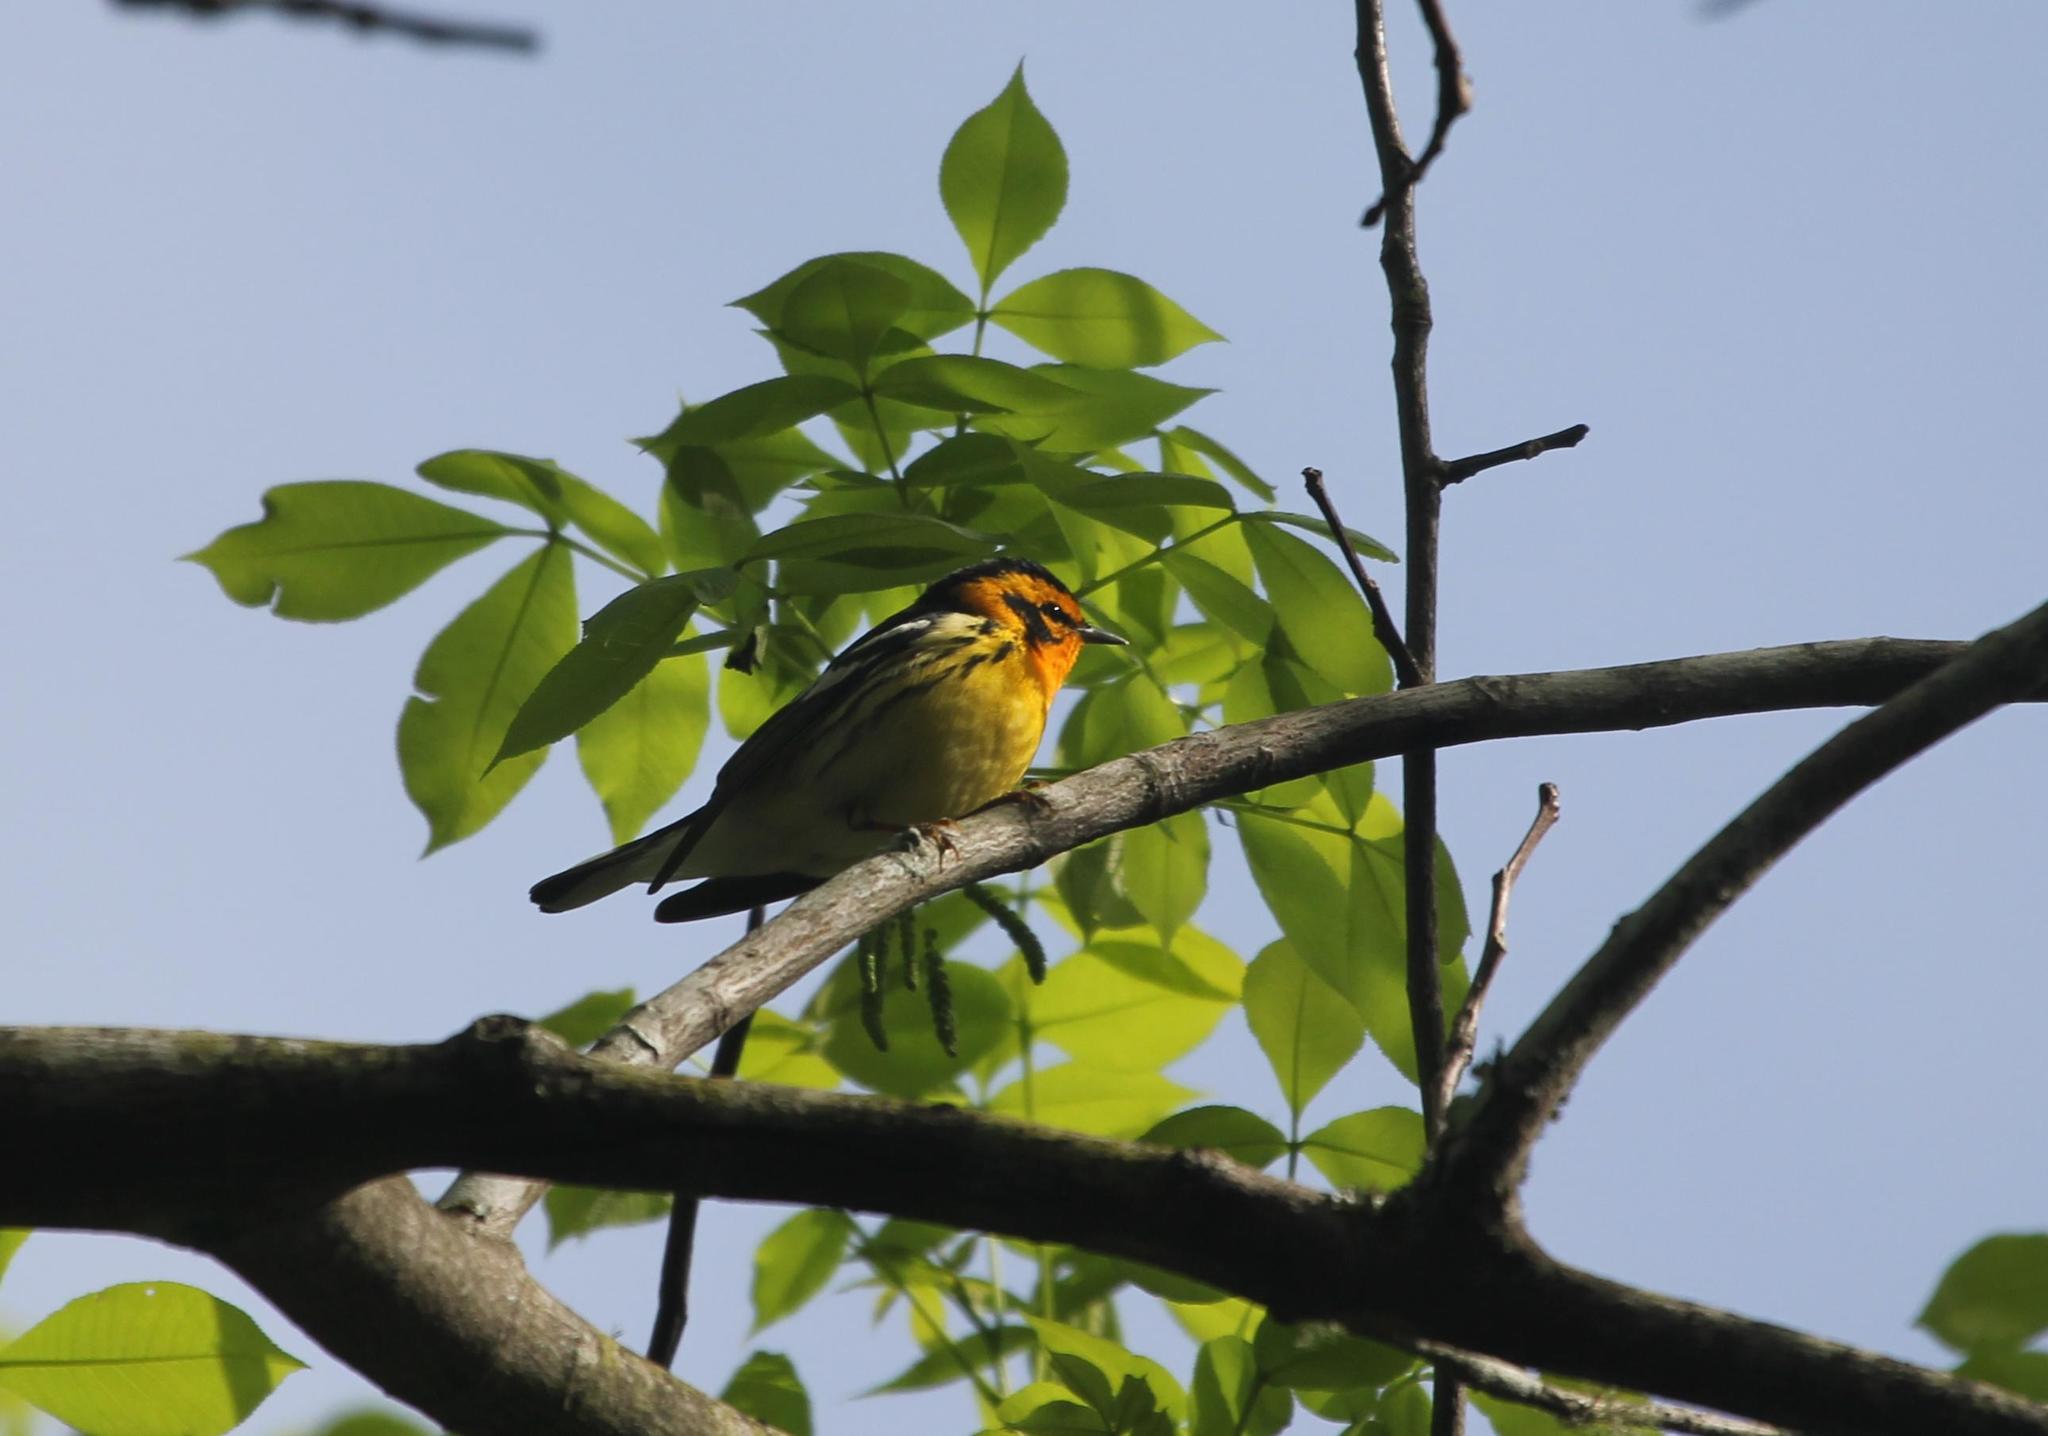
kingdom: Animalia
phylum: Chordata
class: Aves
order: Passeriformes
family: Parulidae
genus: Setophaga
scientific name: Setophaga fusca
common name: Blackburnian warbler
